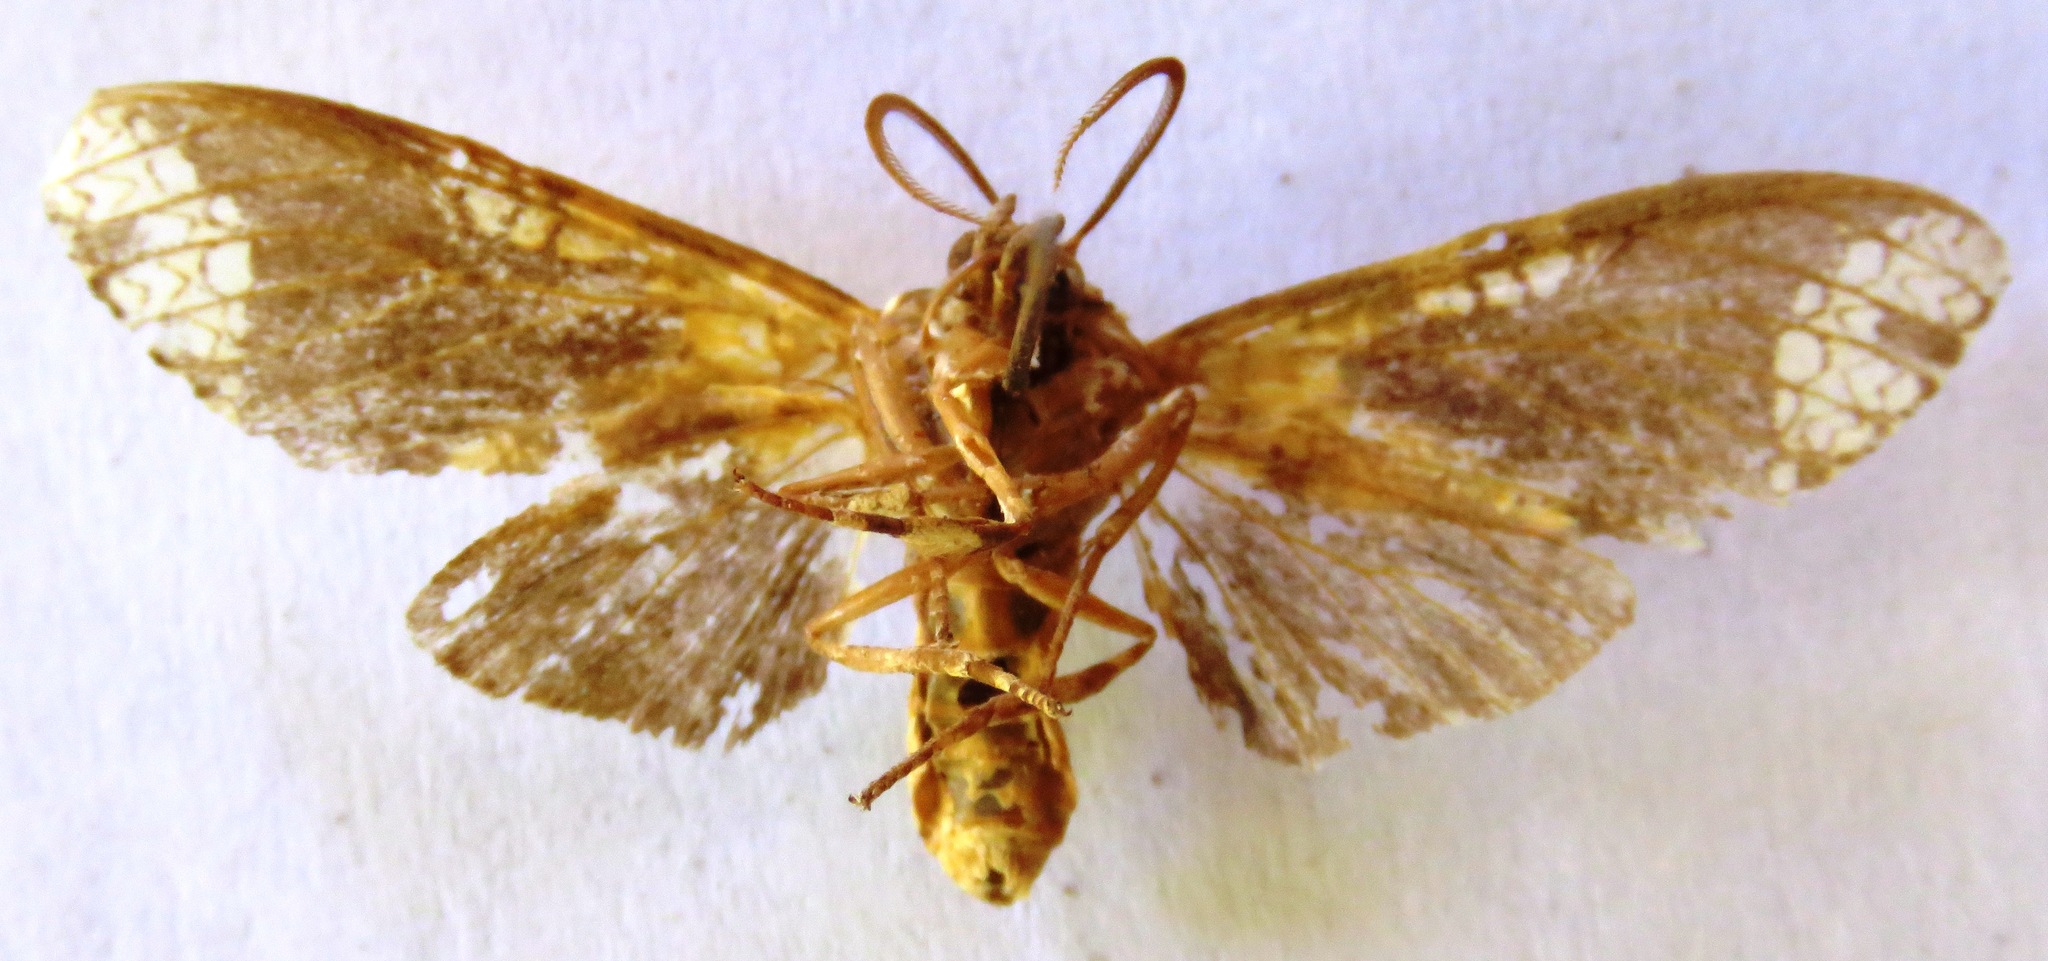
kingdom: Animalia
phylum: Arthropoda
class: Insecta
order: Lepidoptera
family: Erebidae
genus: Carathis
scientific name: Carathis
